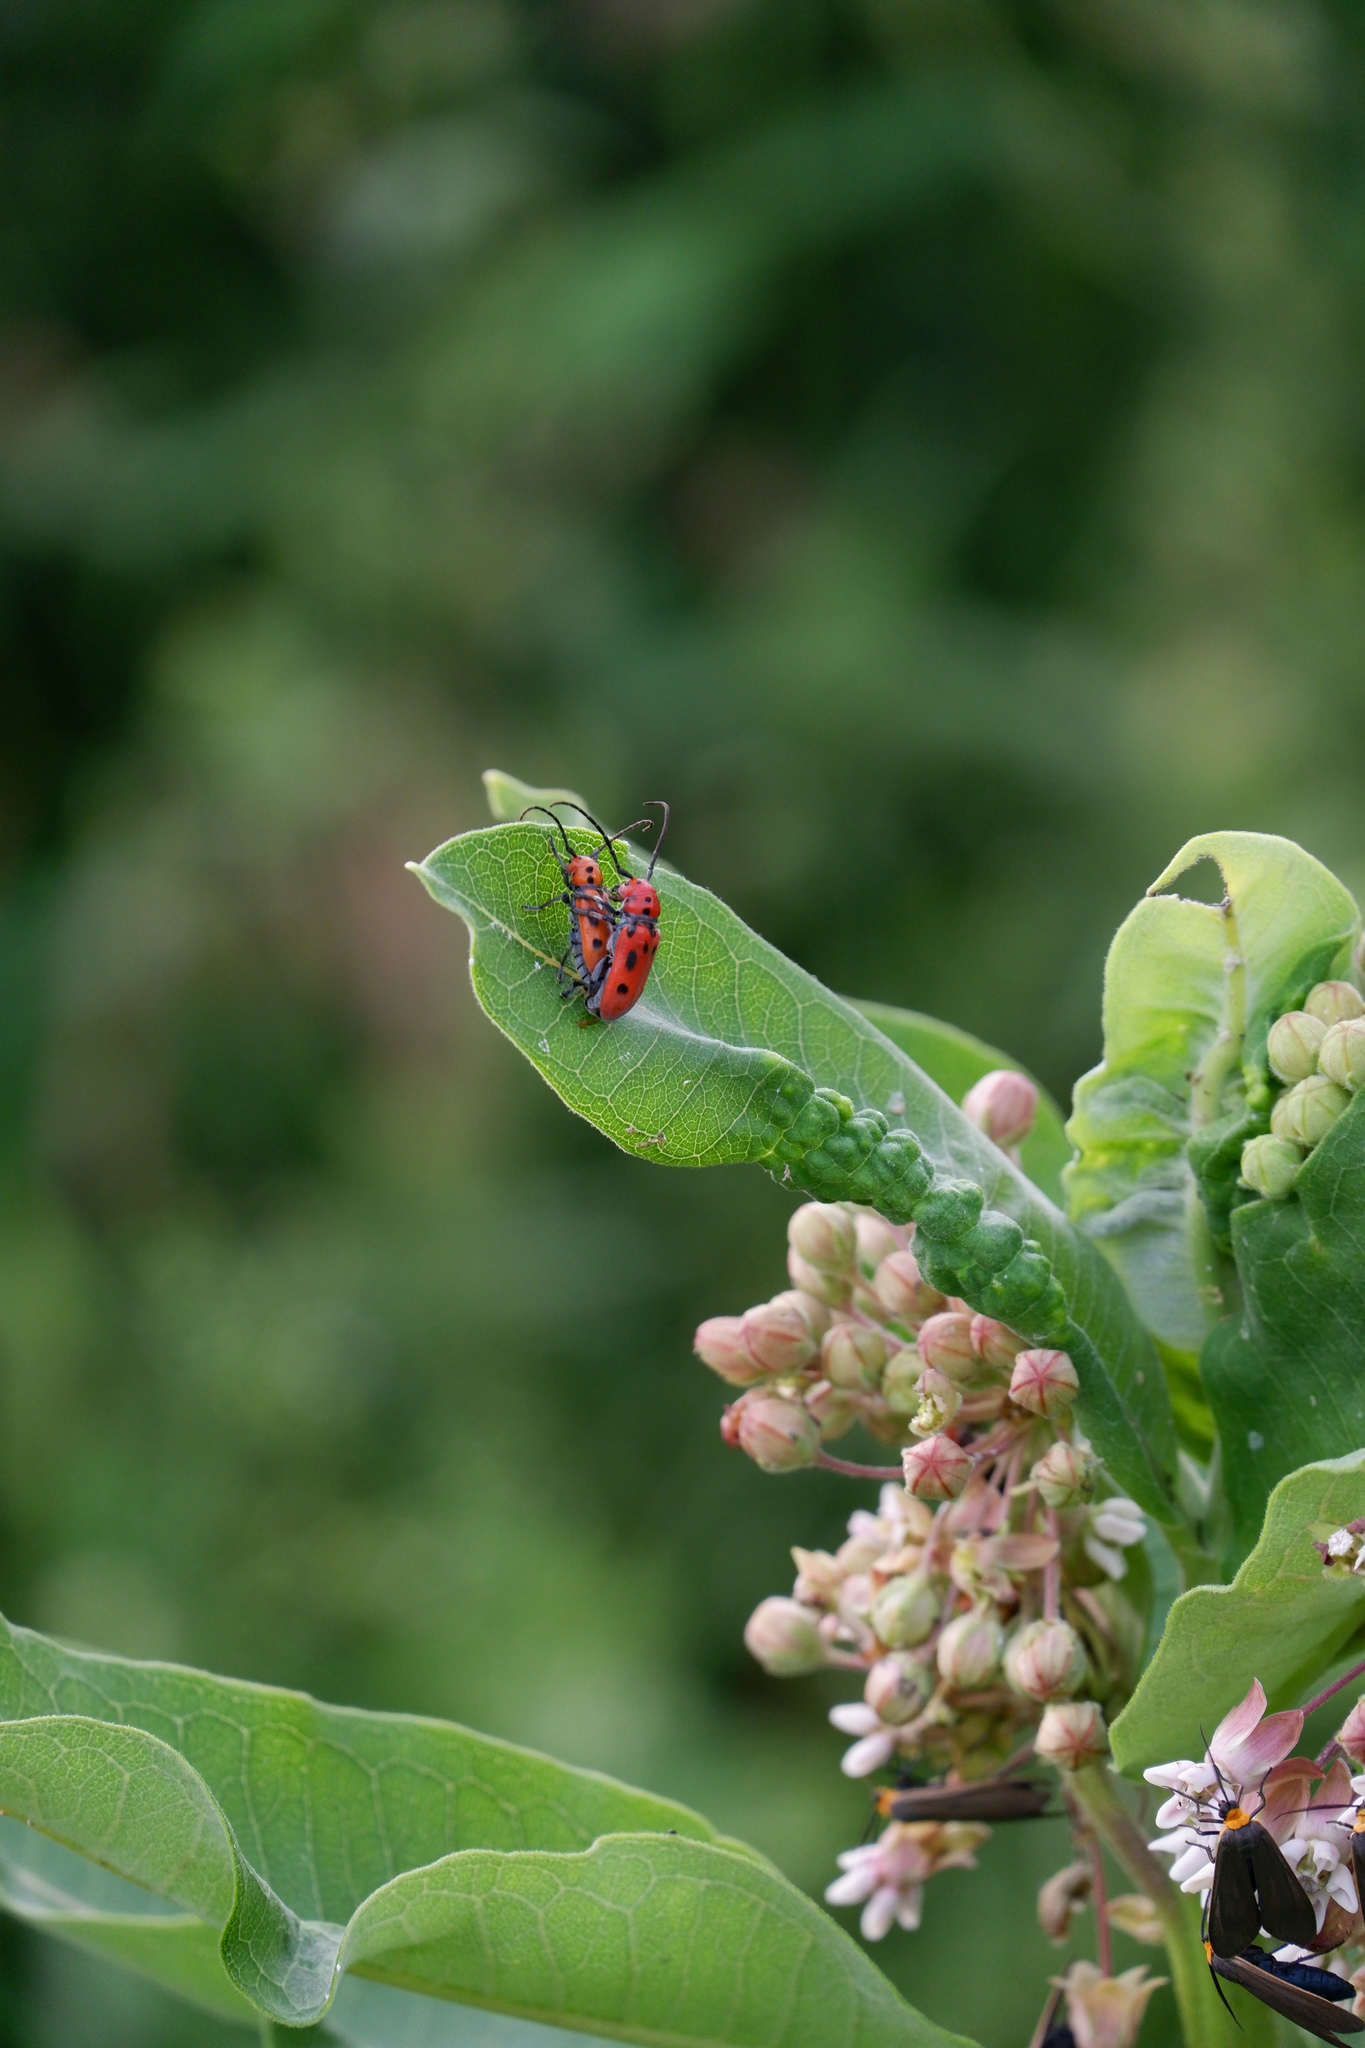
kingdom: Animalia
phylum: Arthropoda
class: Insecta
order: Coleoptera
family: Cerambycidae
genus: Tetraopes
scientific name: Tetraopes tetrophthalmus
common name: Red milkweed beetle
